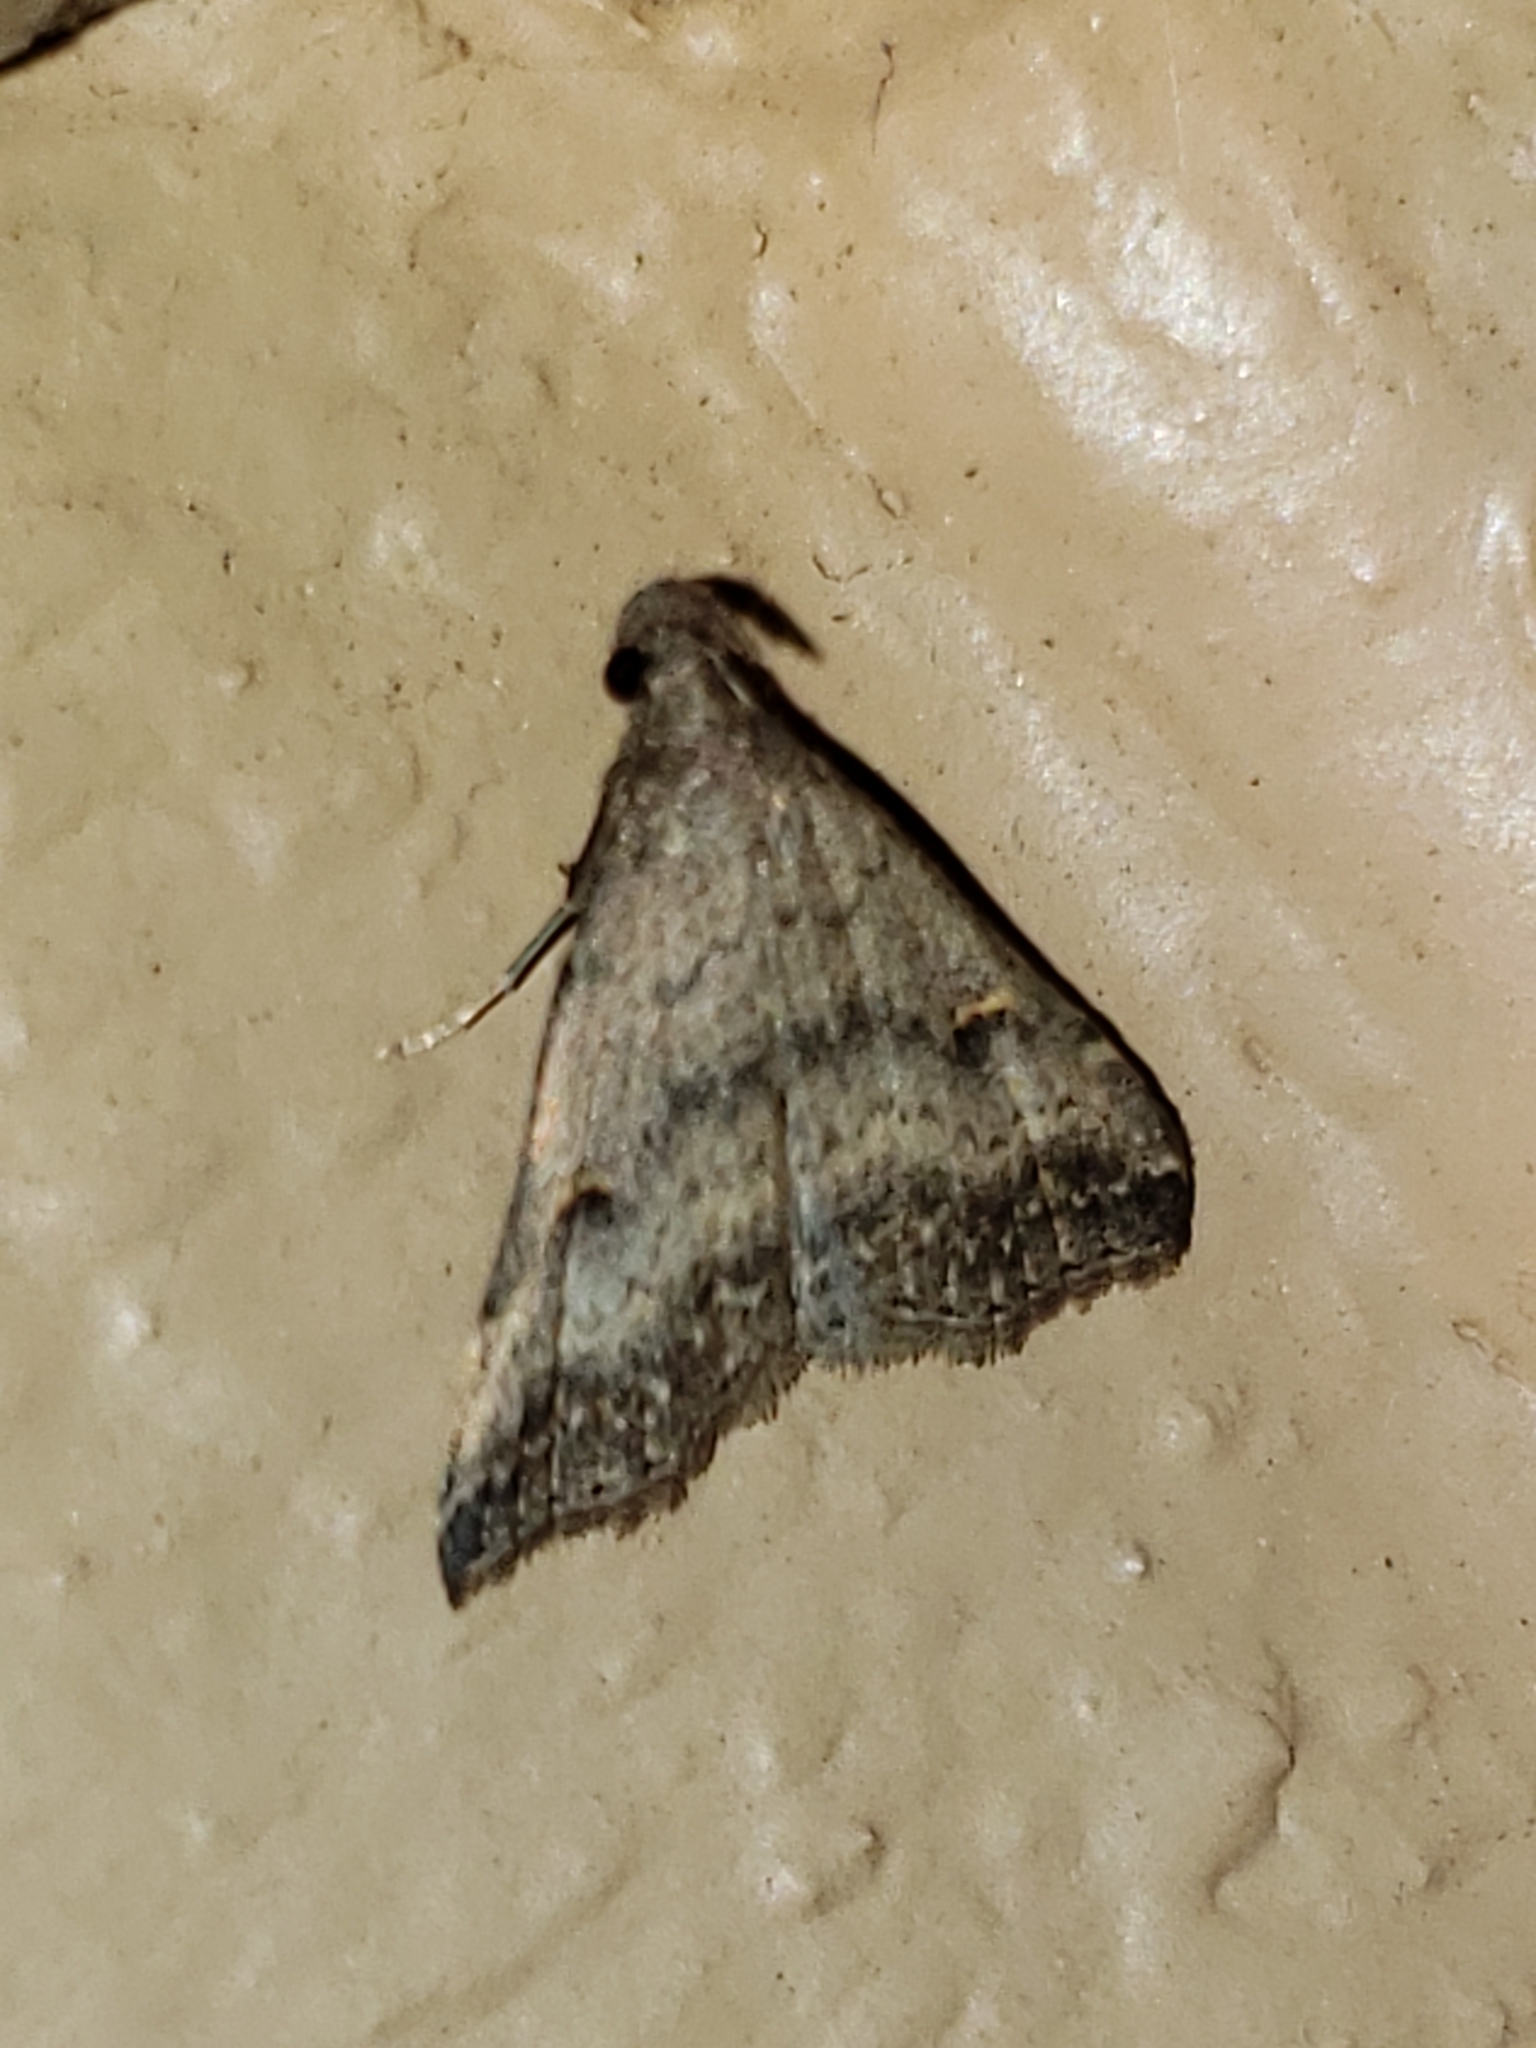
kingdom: Animalia
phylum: Arthropoda
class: Insecta
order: Lepidoptera
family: Erebidae
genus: Tetanolita
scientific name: Tetanolita floridana
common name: Florida tetanolita moth
